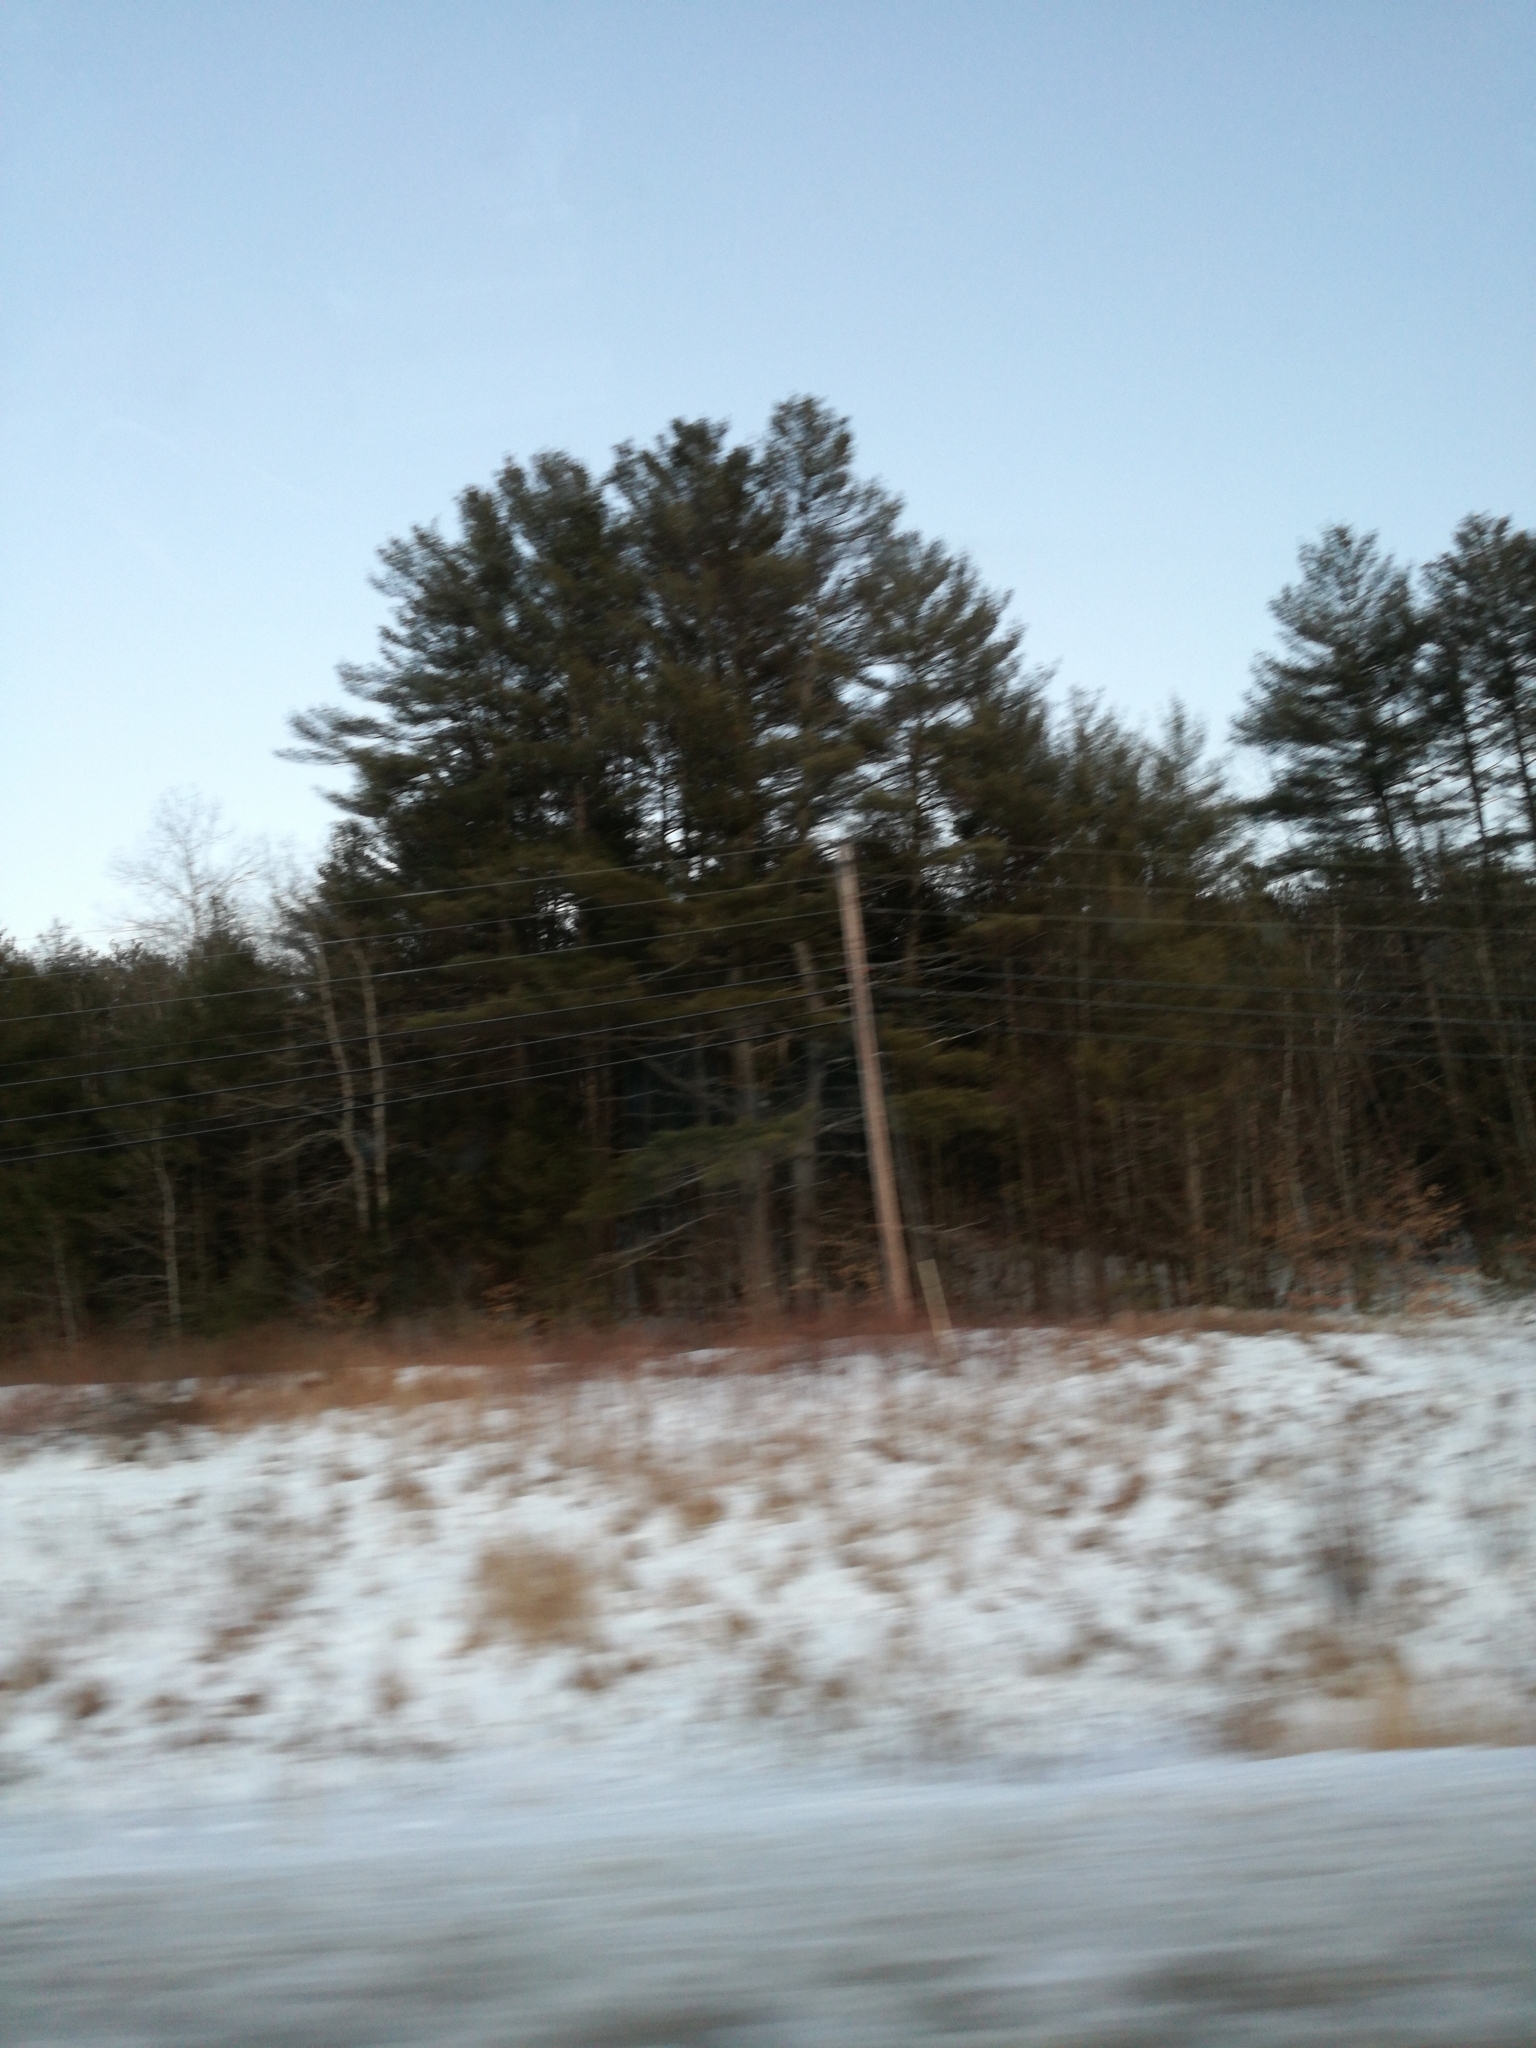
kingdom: Plantae
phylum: Tracheophyta
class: Pinopsida
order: Pinales
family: Pinaceae
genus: Pinus
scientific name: Pinus strobus
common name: Weymouth pine
